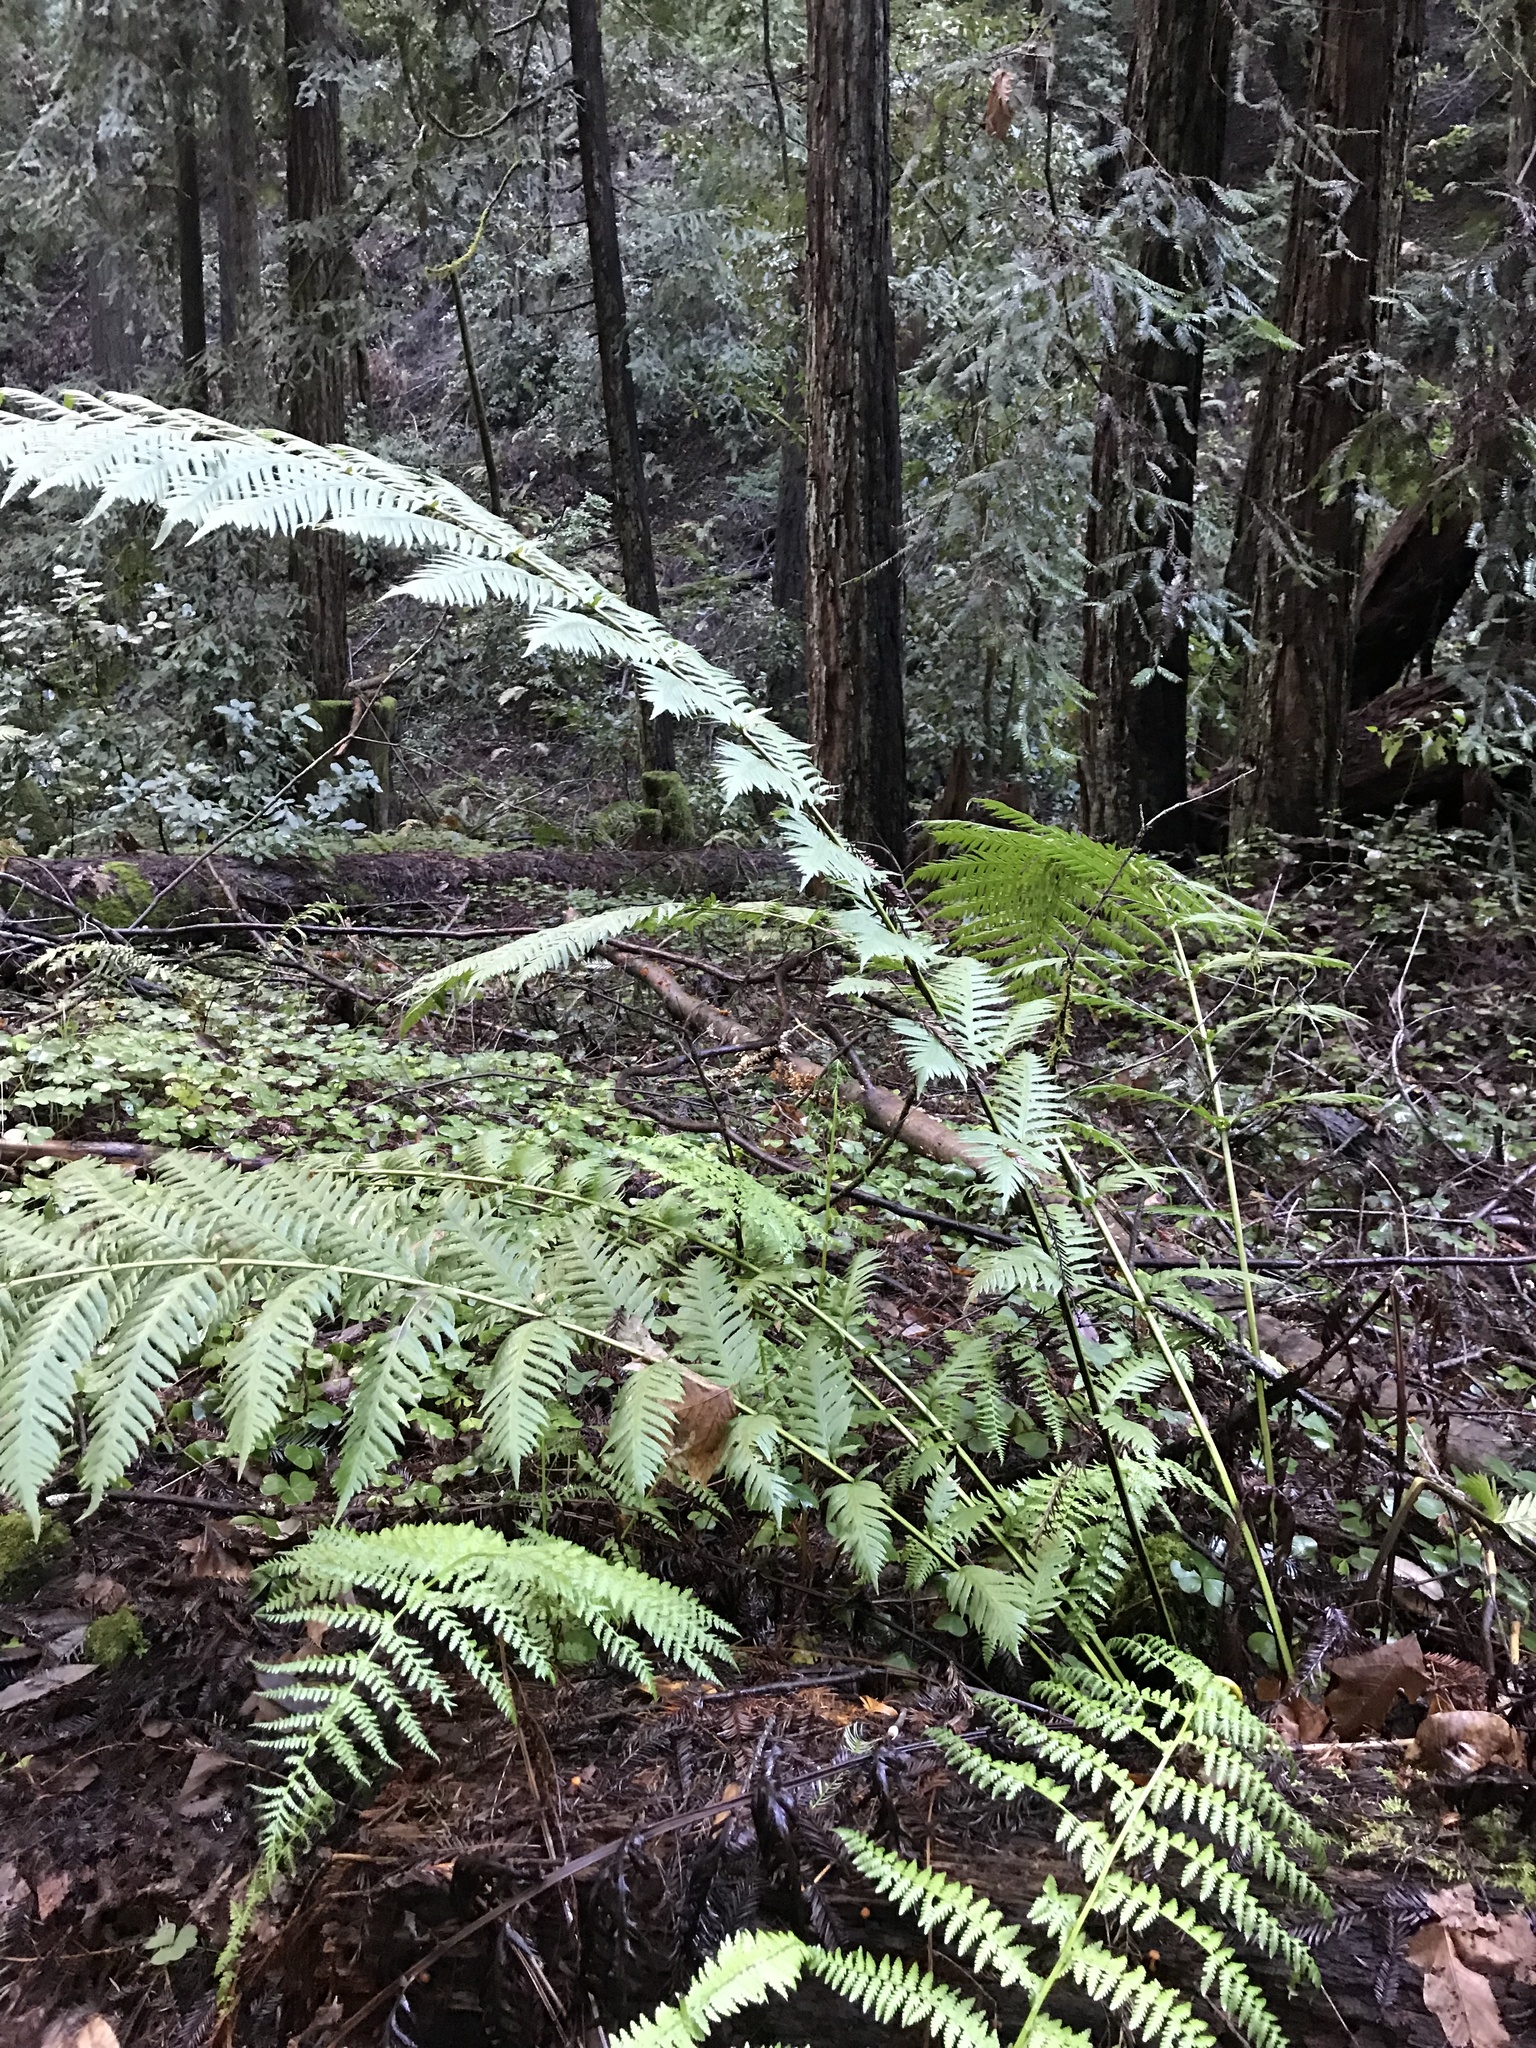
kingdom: Plantae
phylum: Tracheophyta
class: Polypodiopsida
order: Polypodiales
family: Blechnaceae
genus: Woodwardia
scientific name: Woodwardia fimbriata
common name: Giant chain fern
